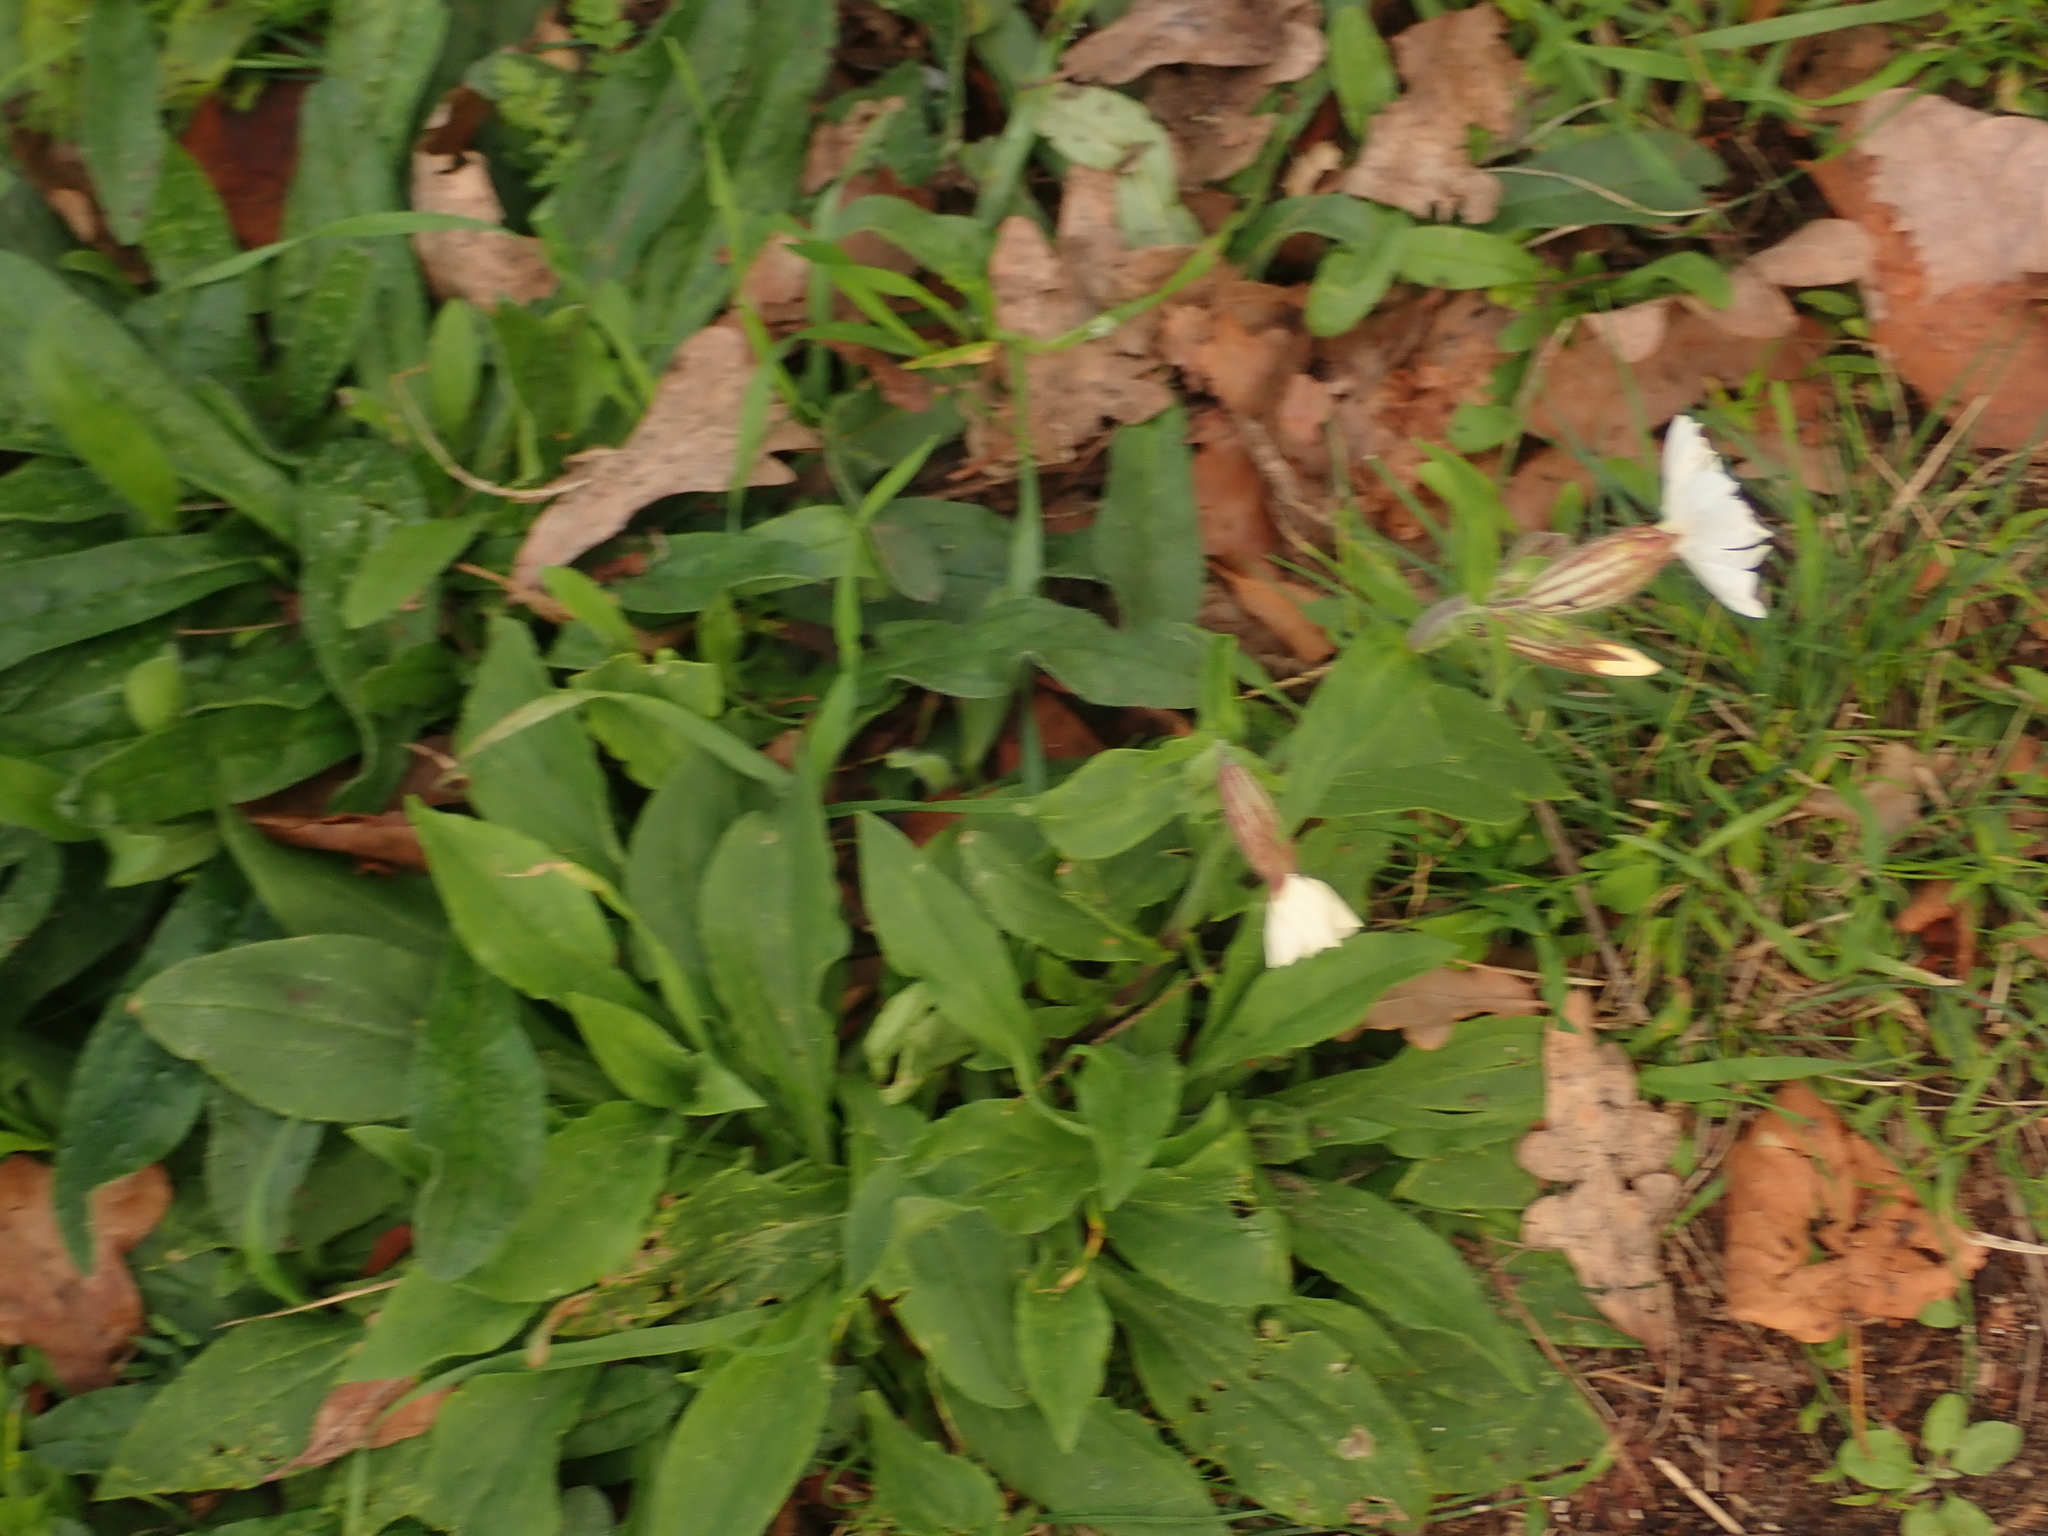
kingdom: Plantae
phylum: Tracheophyta
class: Magnoliopsida
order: Caryophyllales
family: Caryophyllaceae
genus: Silene
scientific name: Silene latifolia
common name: White campion
